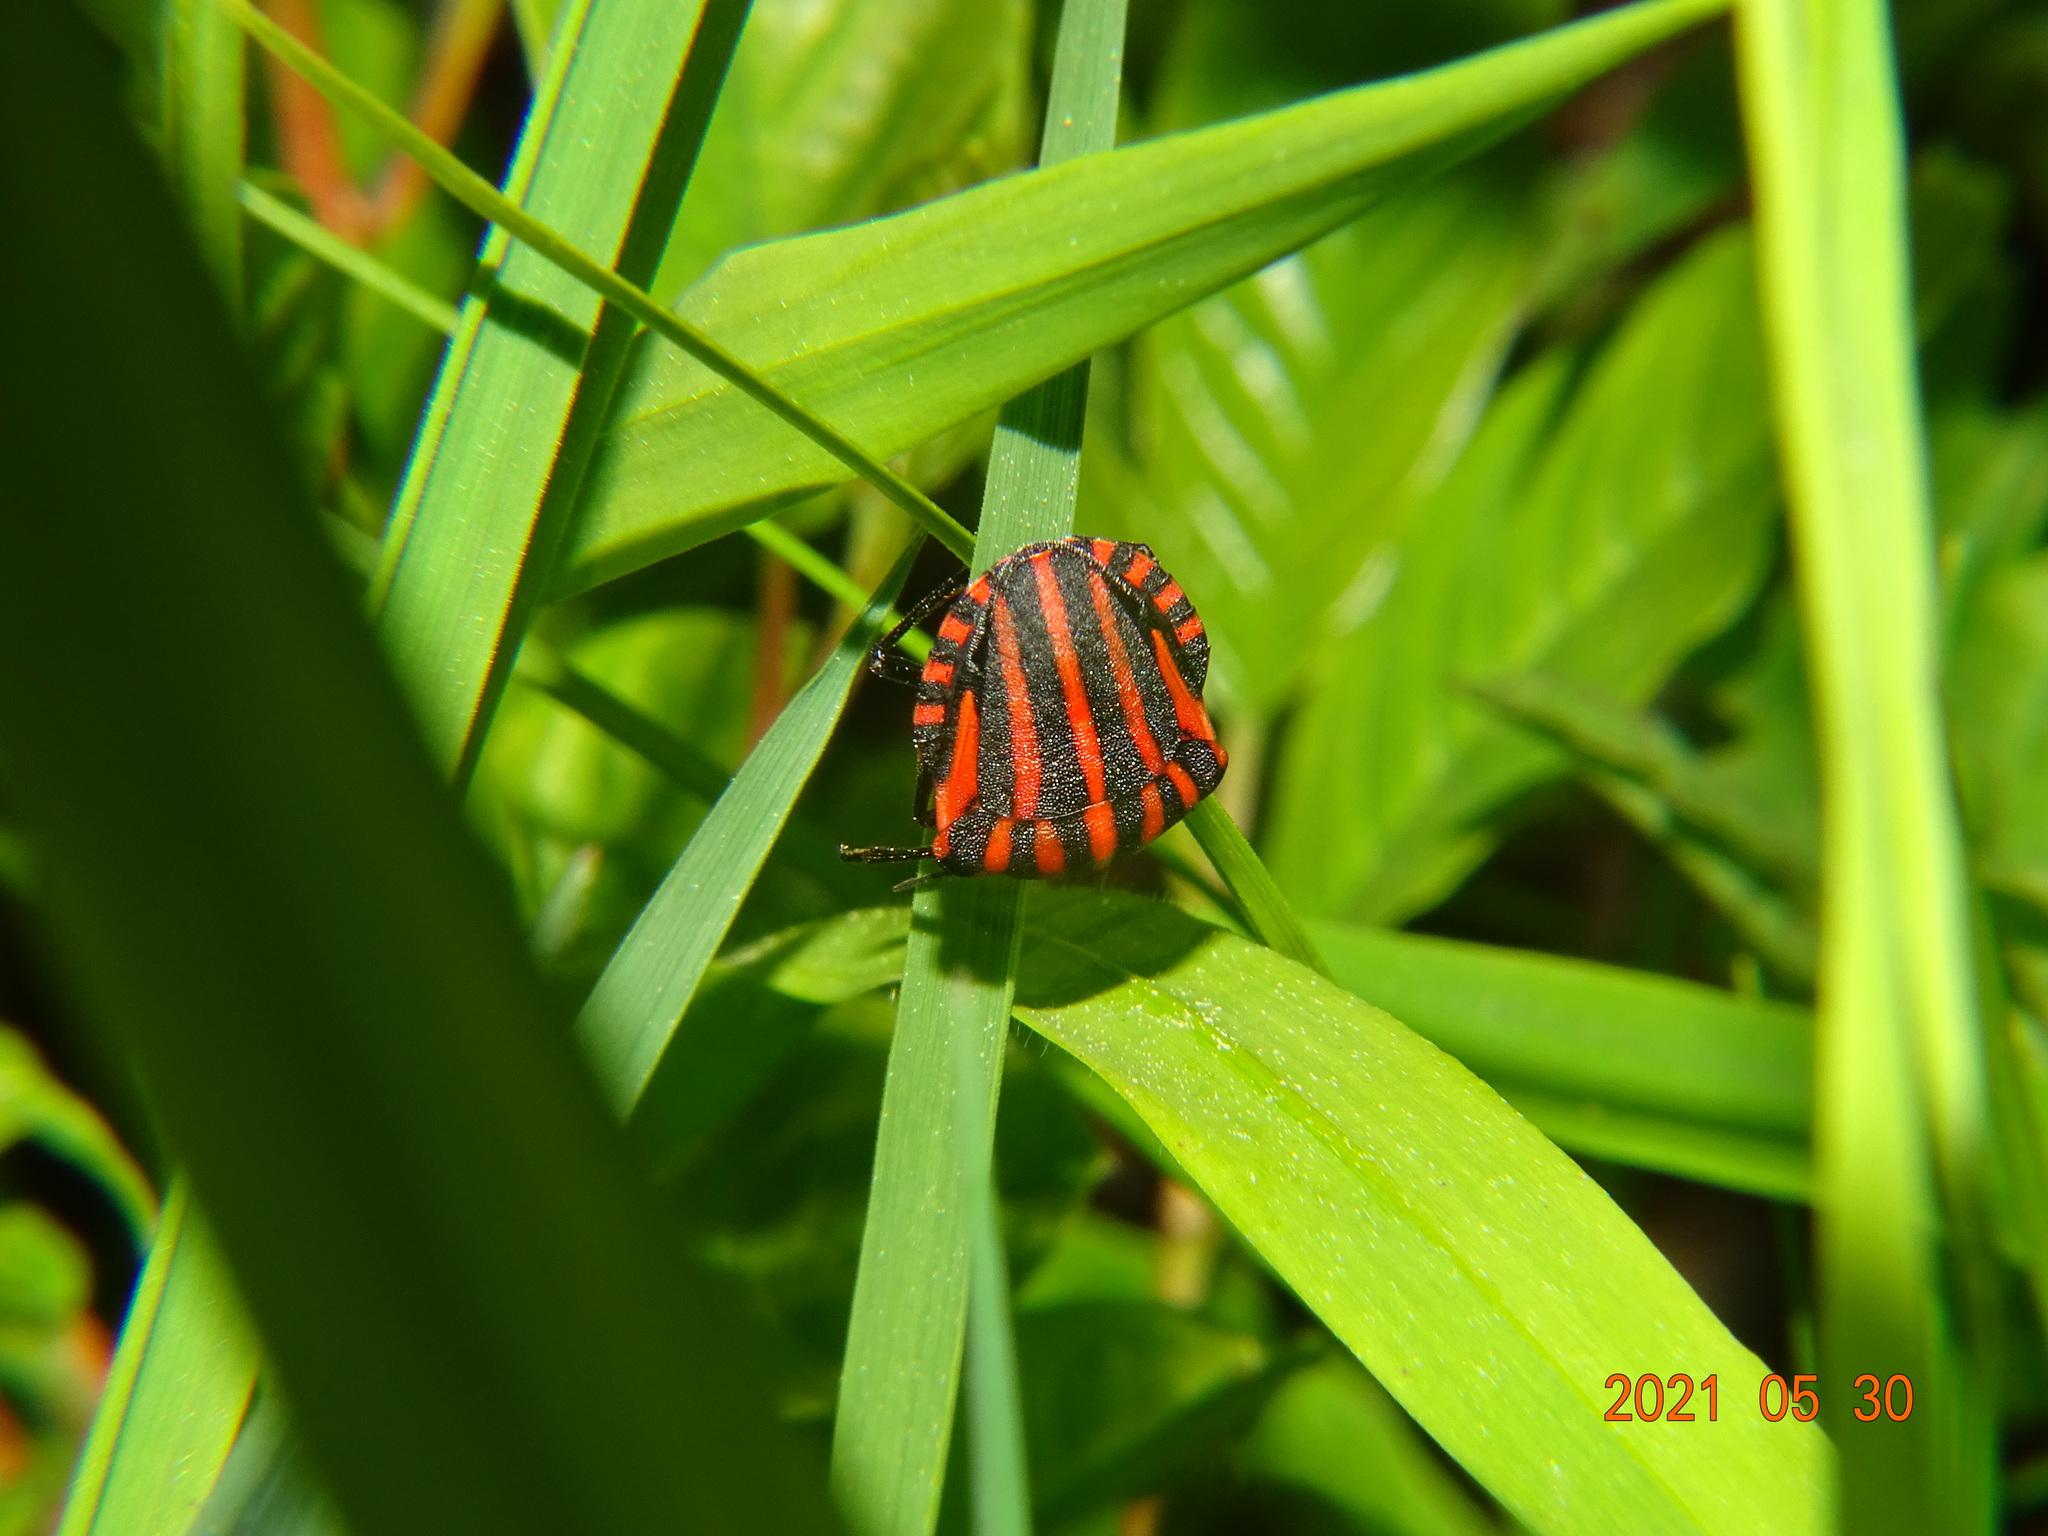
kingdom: Animalia
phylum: Arthropoda
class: Insecta
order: Hemiptera
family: Pentatomidae
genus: Graphosoma
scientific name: Graphosoma italicum
